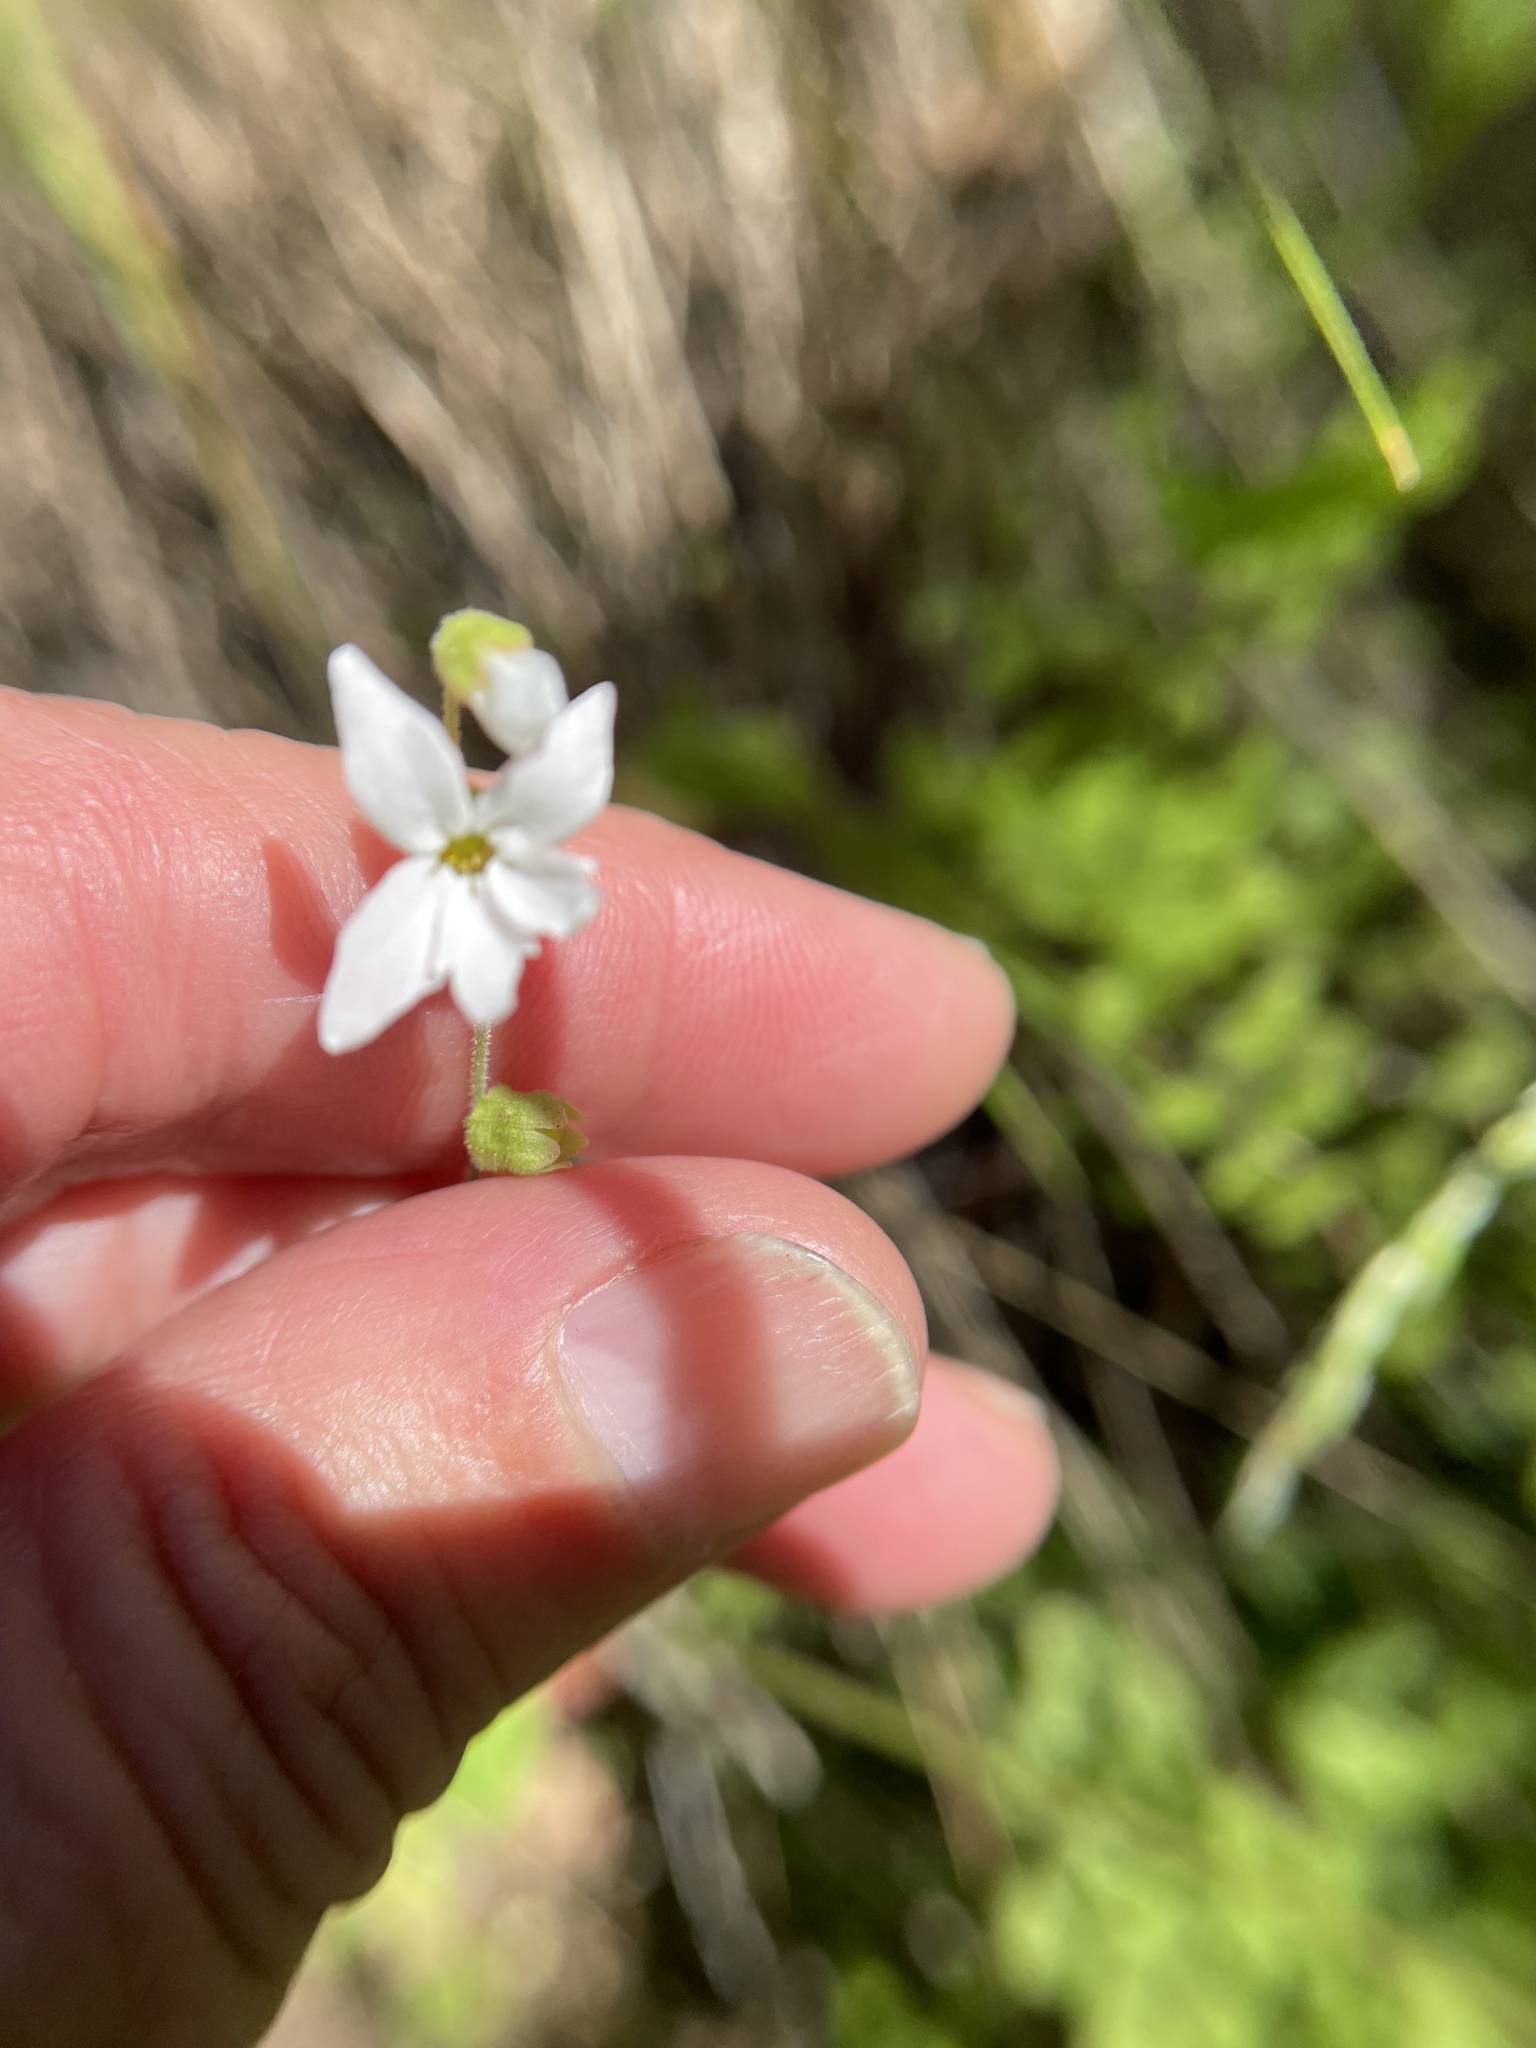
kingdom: Plantae
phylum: Tracheophyta
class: Magnoliopsida
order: Saxifragales
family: Saxifragaceae
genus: Lithophragma
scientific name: Lithophragma bolanderi
